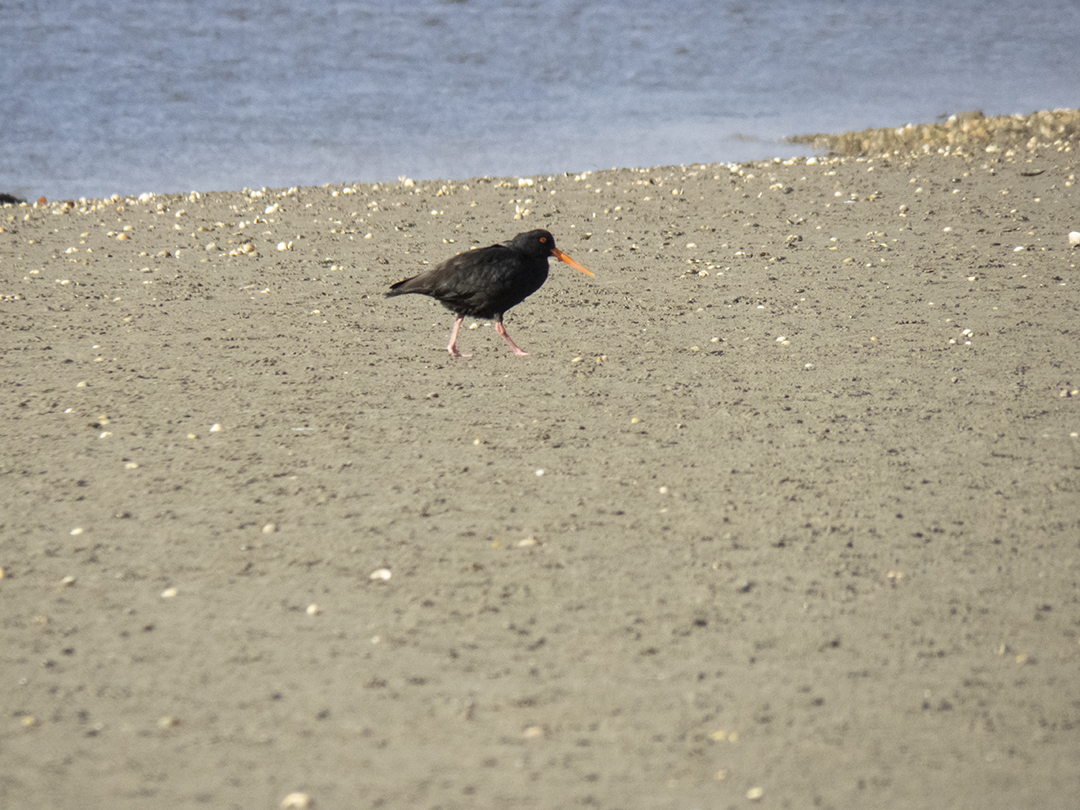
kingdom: Animalia
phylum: Chordata
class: Aves
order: Charadriiformes
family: Haematopodidae
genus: Haematopus
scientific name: Haematopus unicolor
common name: Variable oystercatcher
